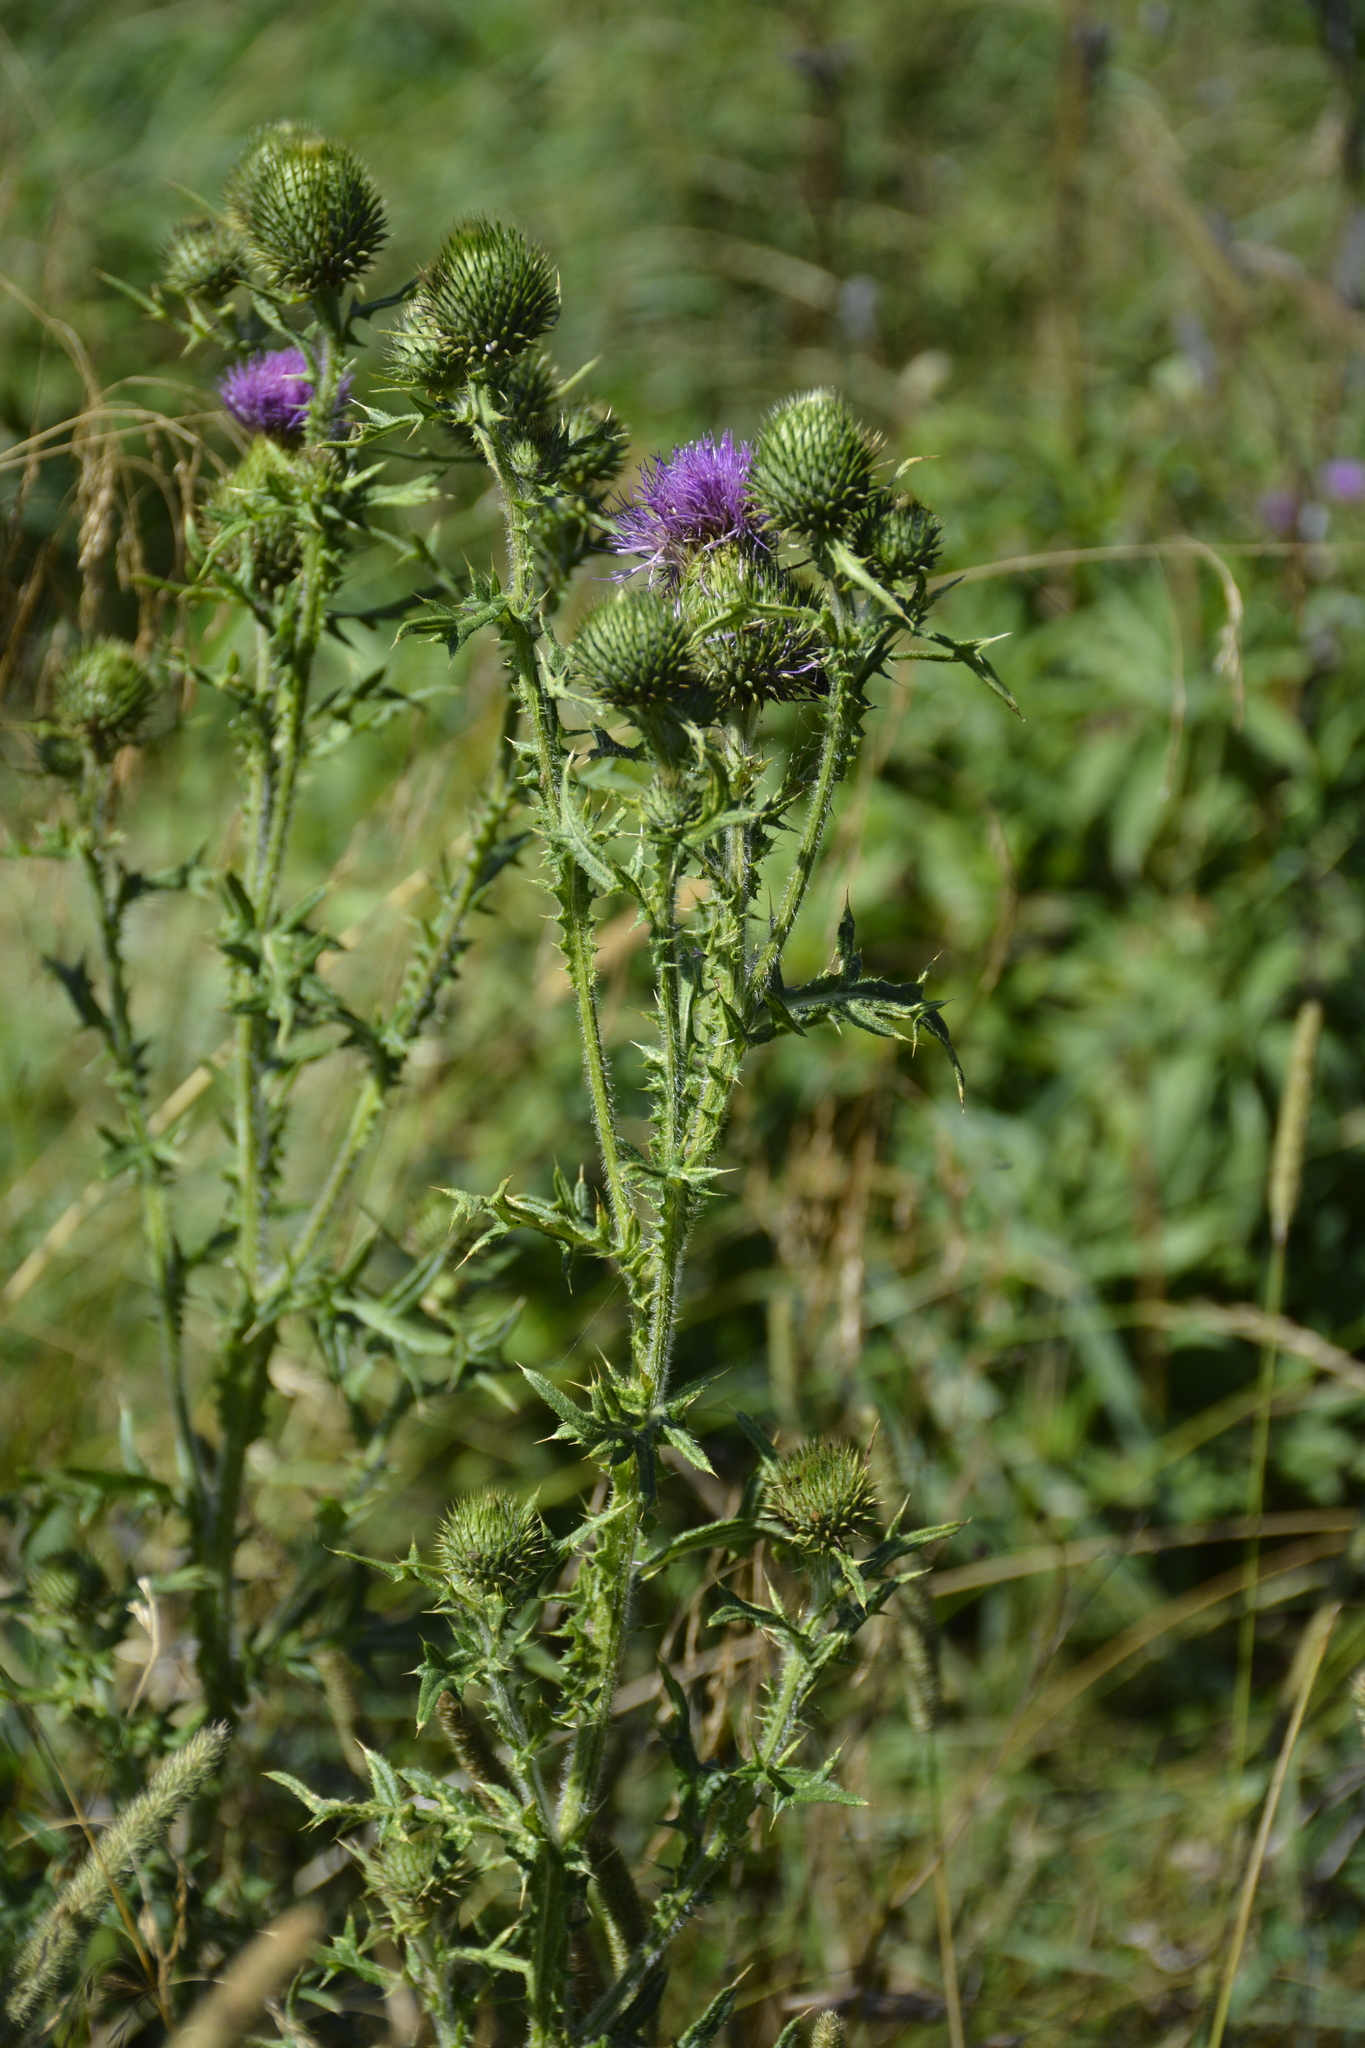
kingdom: Plantae
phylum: Tracheophyta
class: Magnoliopsida
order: Asterales
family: Asteraceae
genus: Cirsium
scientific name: Cirsium vulgare
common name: Bull thistle
